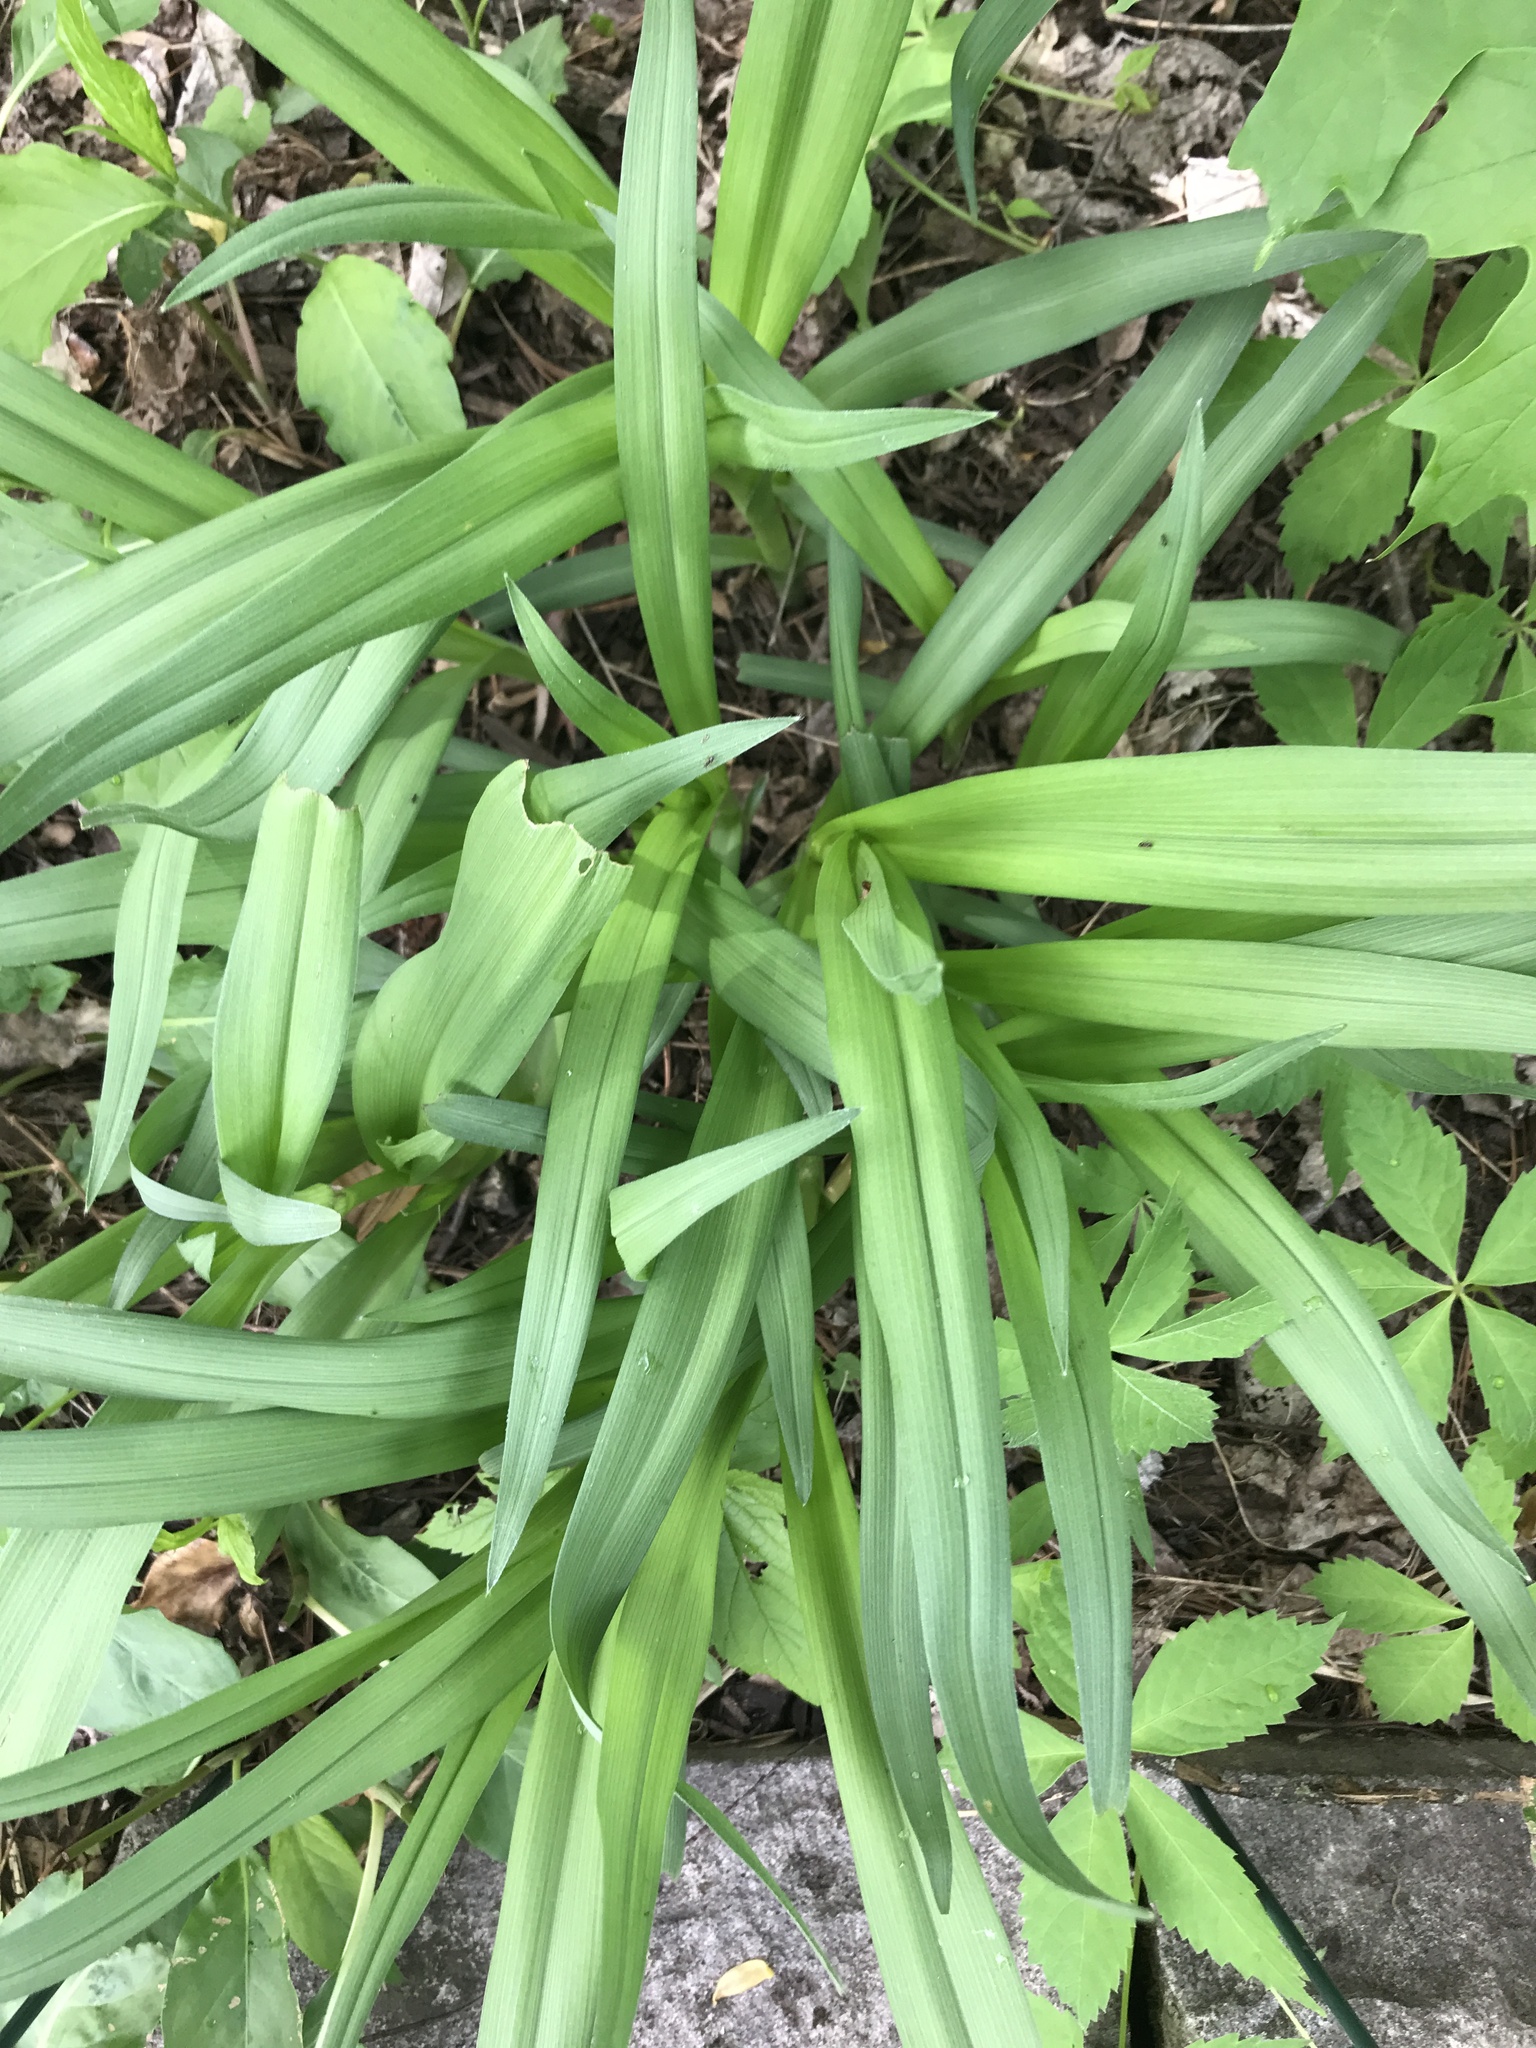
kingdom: Plantae
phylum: Tracheophyta
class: Liliopsida
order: Commelinales
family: Commelinaceae
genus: Tradescantia
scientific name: Tradescantia virginiana
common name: Spiderwort
